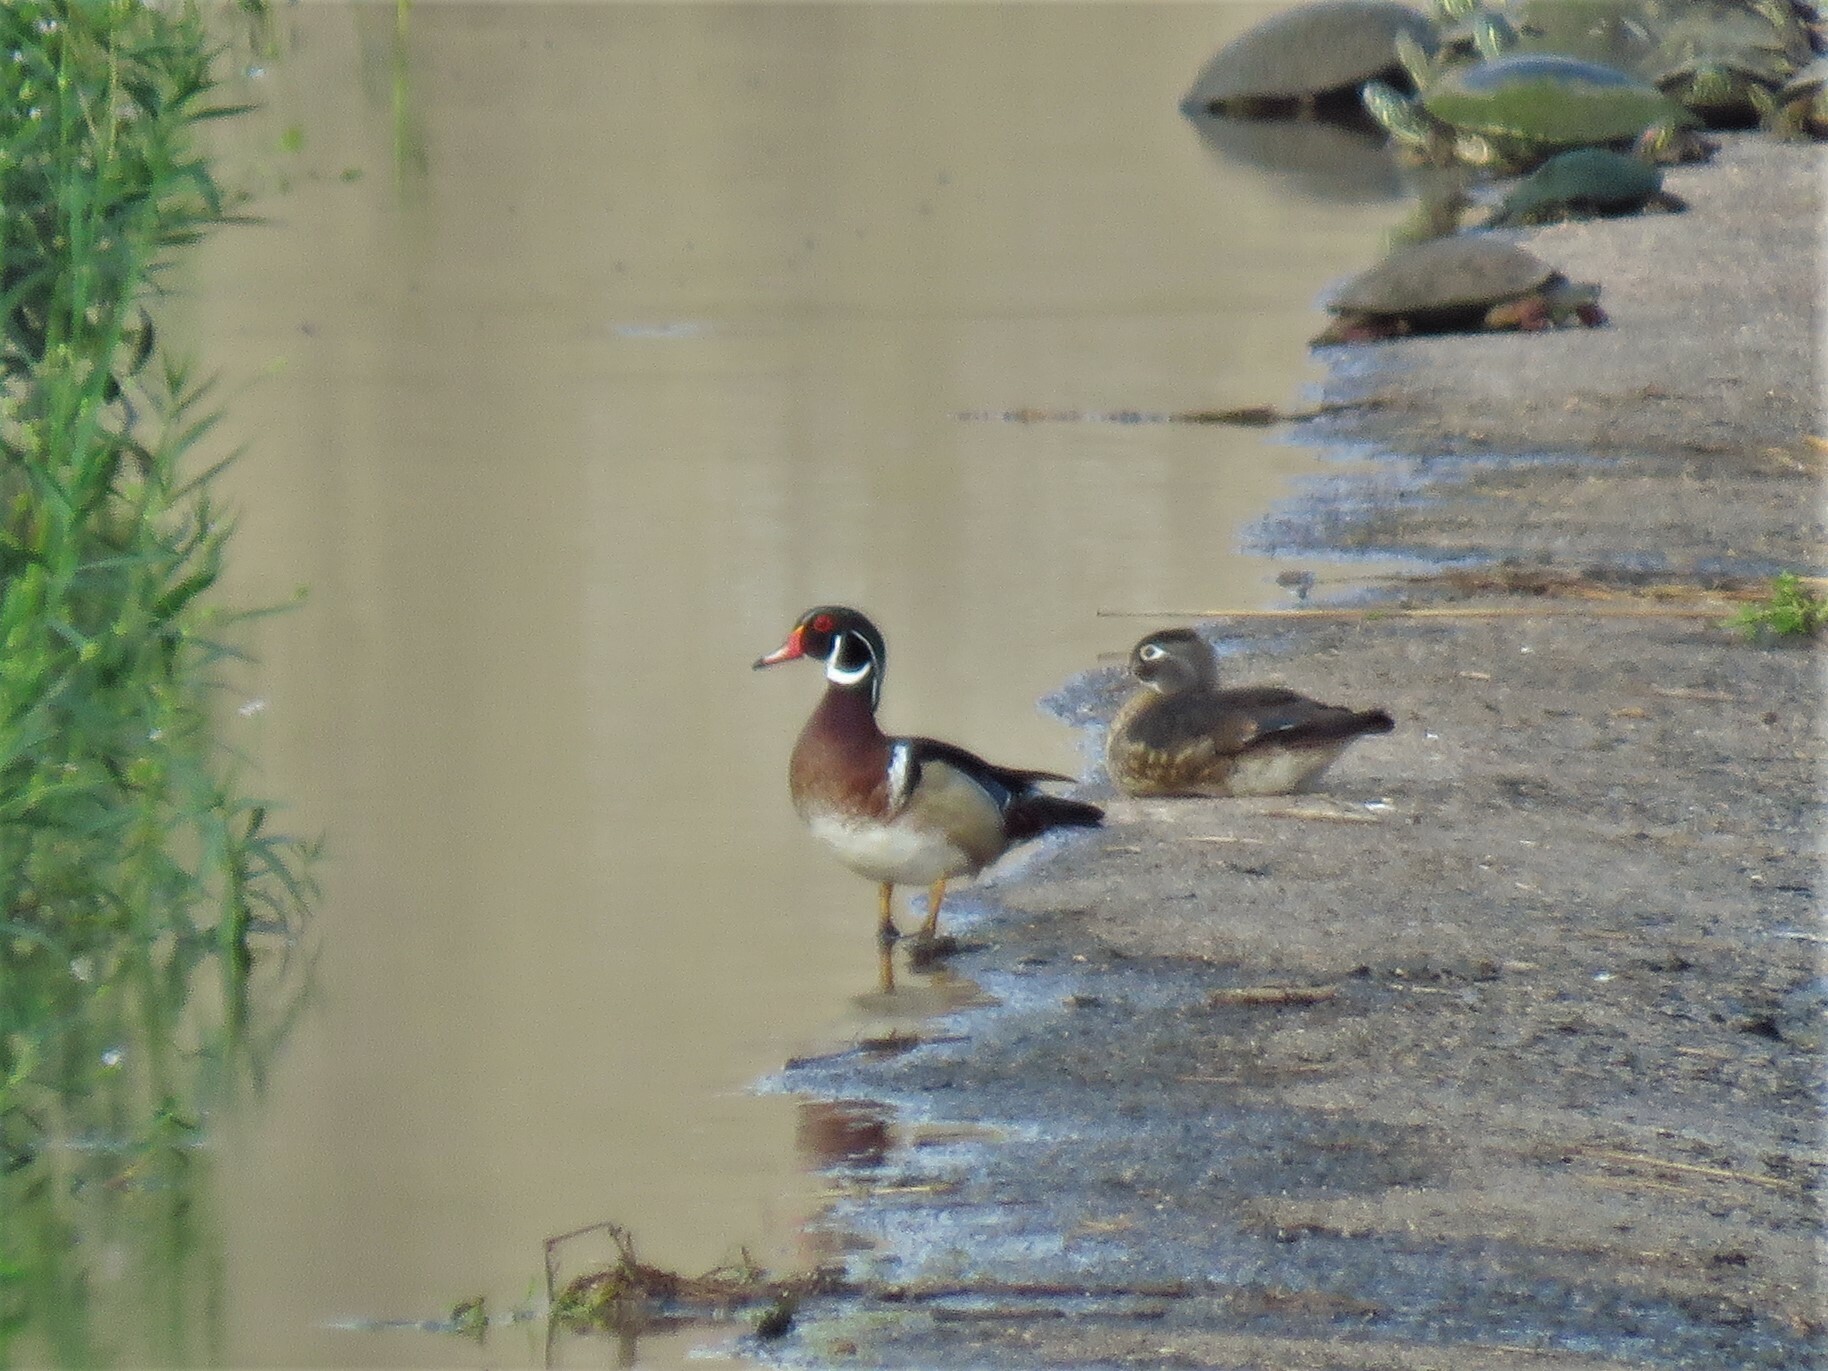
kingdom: Animalia
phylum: Chordata
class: Aves
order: Anseriformes
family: Anatidae
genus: Aix
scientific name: Aix sponsa
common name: Wood duck
